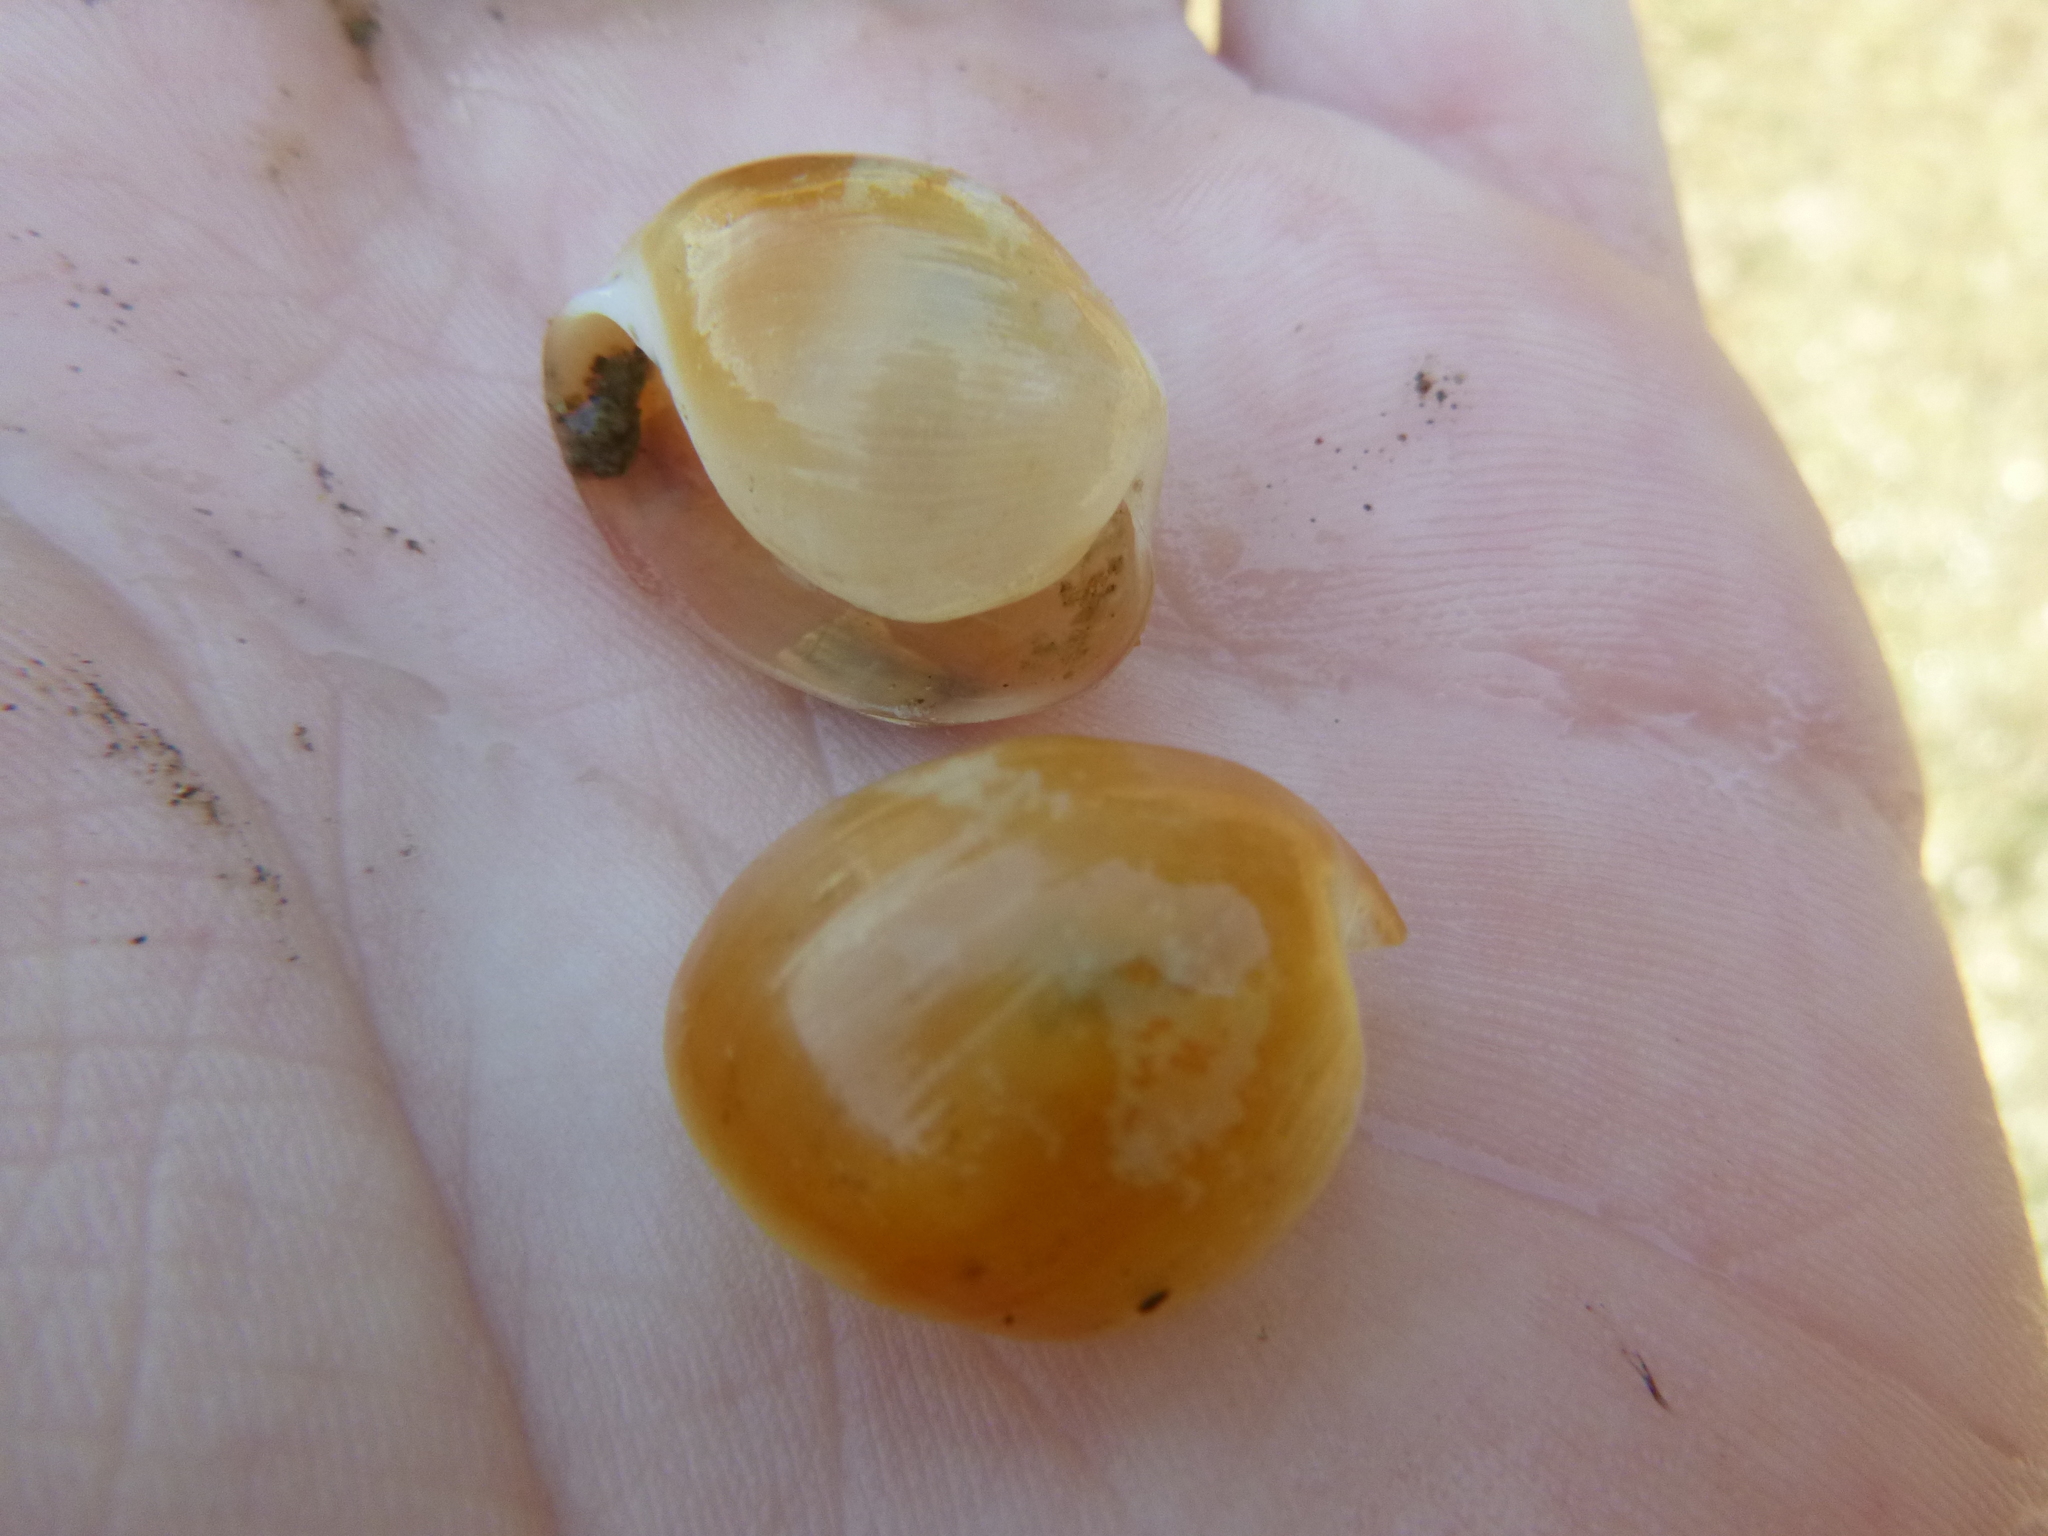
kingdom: Animalia
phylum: Mollusca
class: Gastropoda
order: Cephalaspidea
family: Haminoeidae
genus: Papawera
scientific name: Papawera zelandiae
